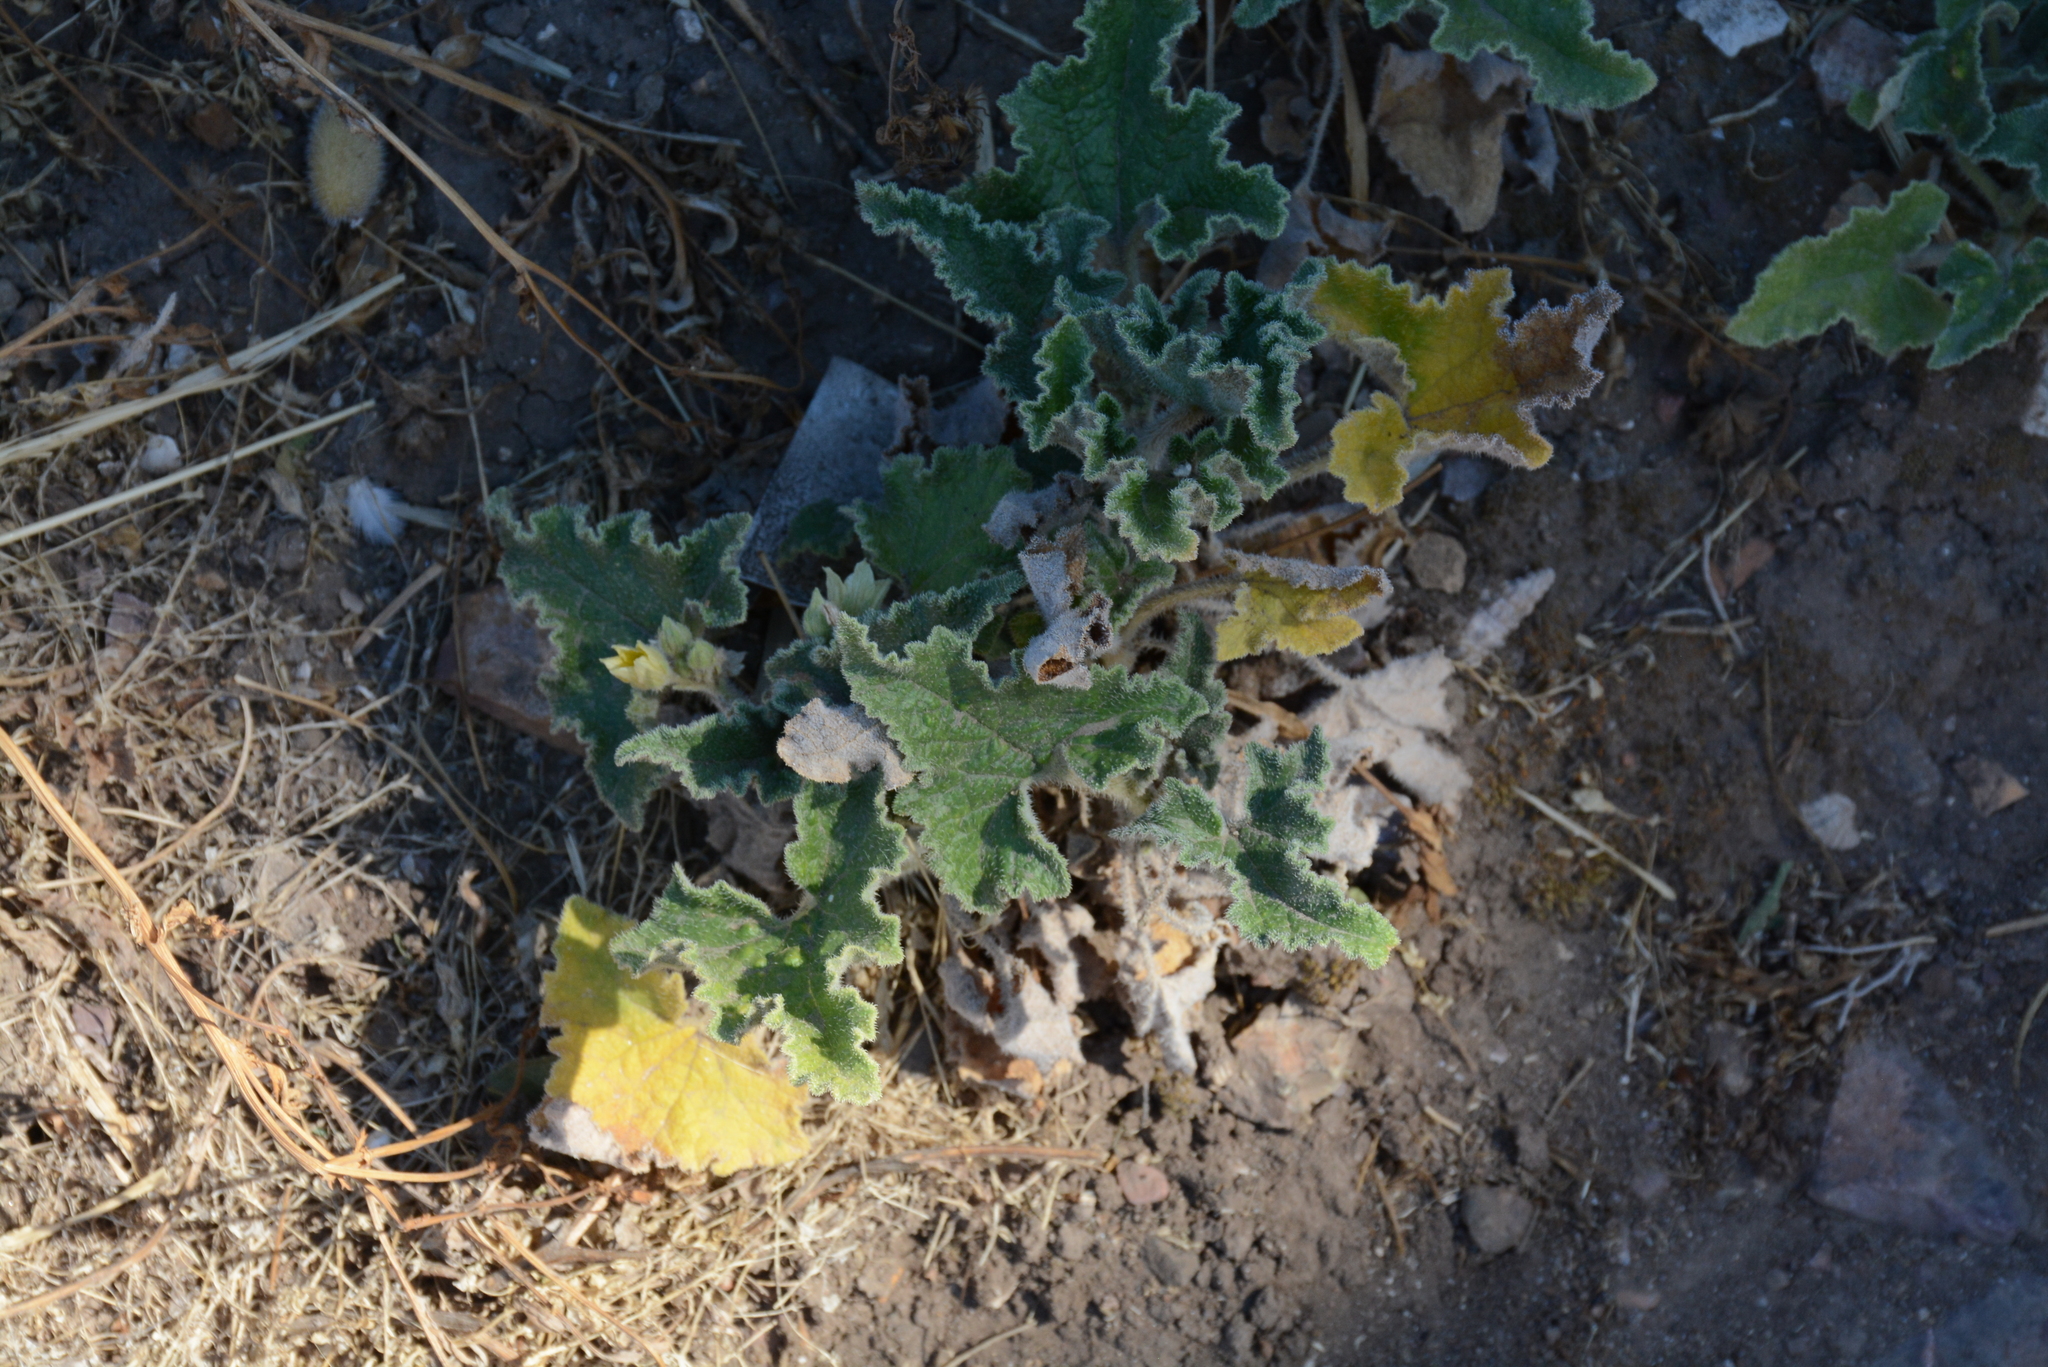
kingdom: Plantae
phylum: Tracheophyta
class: Magnoliopsida
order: Cucurbitales
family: Cucurbitaceae
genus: Ecballium
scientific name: Ecballium elaterium
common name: Squirting cucumber
